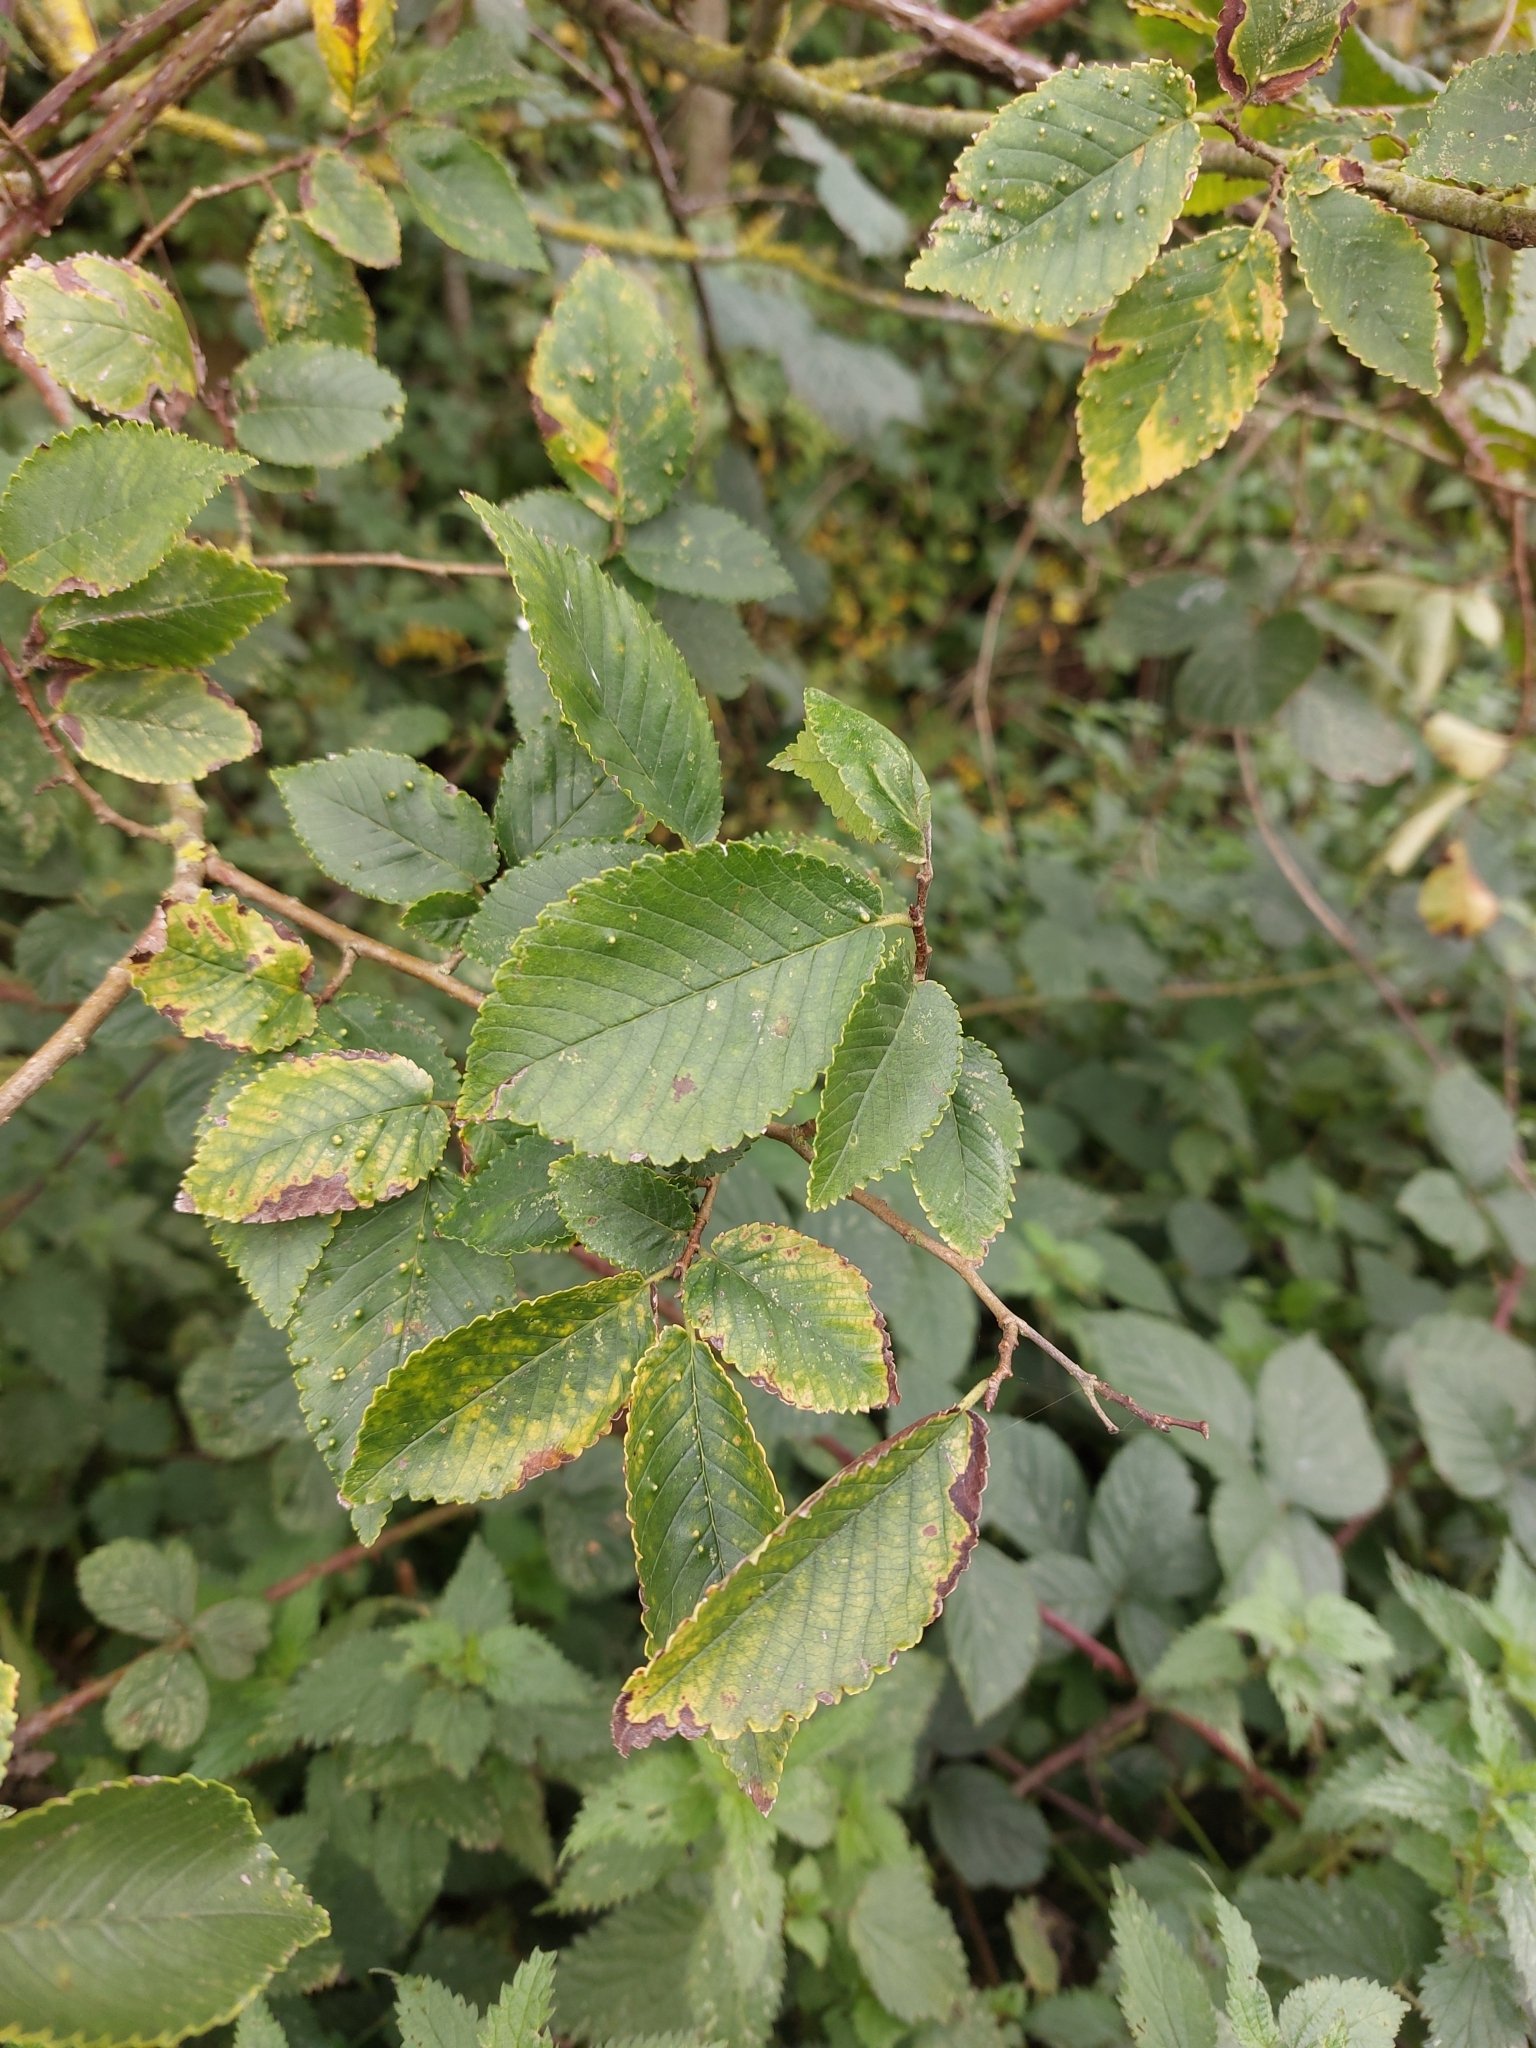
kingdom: Plantae
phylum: Tracheophyta
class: Magnoliopsida
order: Rosales
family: Ulmaceae
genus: Ulmus
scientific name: Ulmus minor
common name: Small-leaved elm
